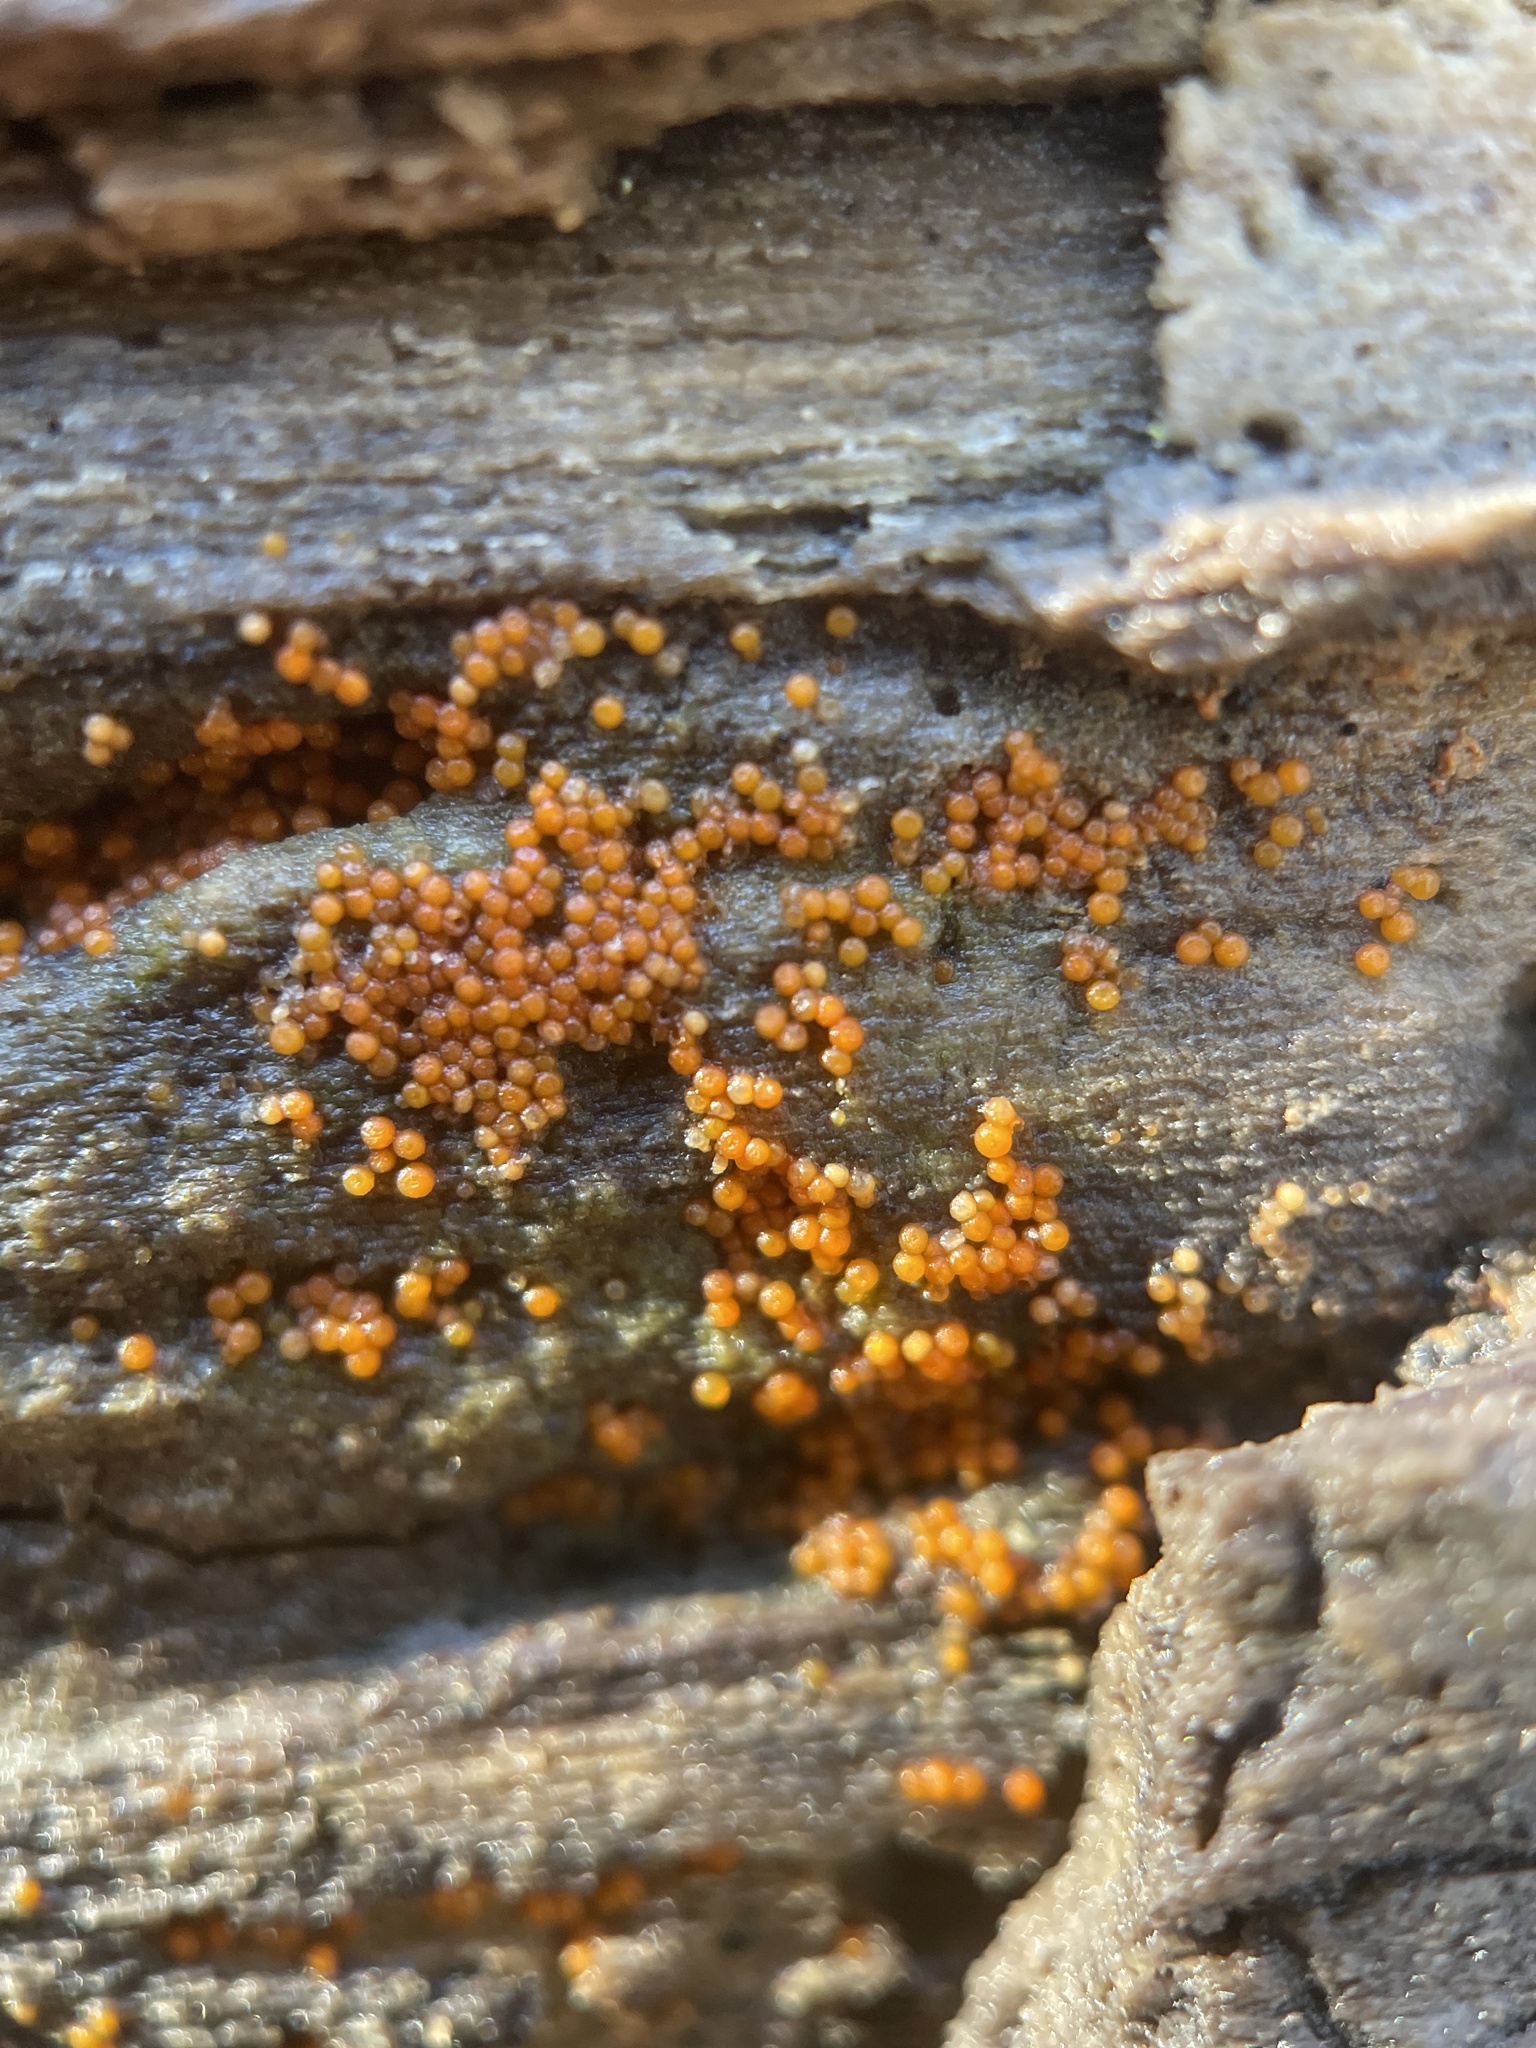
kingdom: Fungi
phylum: Ascomycota
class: Sordariomycetes
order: Hypocreales
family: Nectriaceae
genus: Hydropisphaera
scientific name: Hydropisphaera peziza
